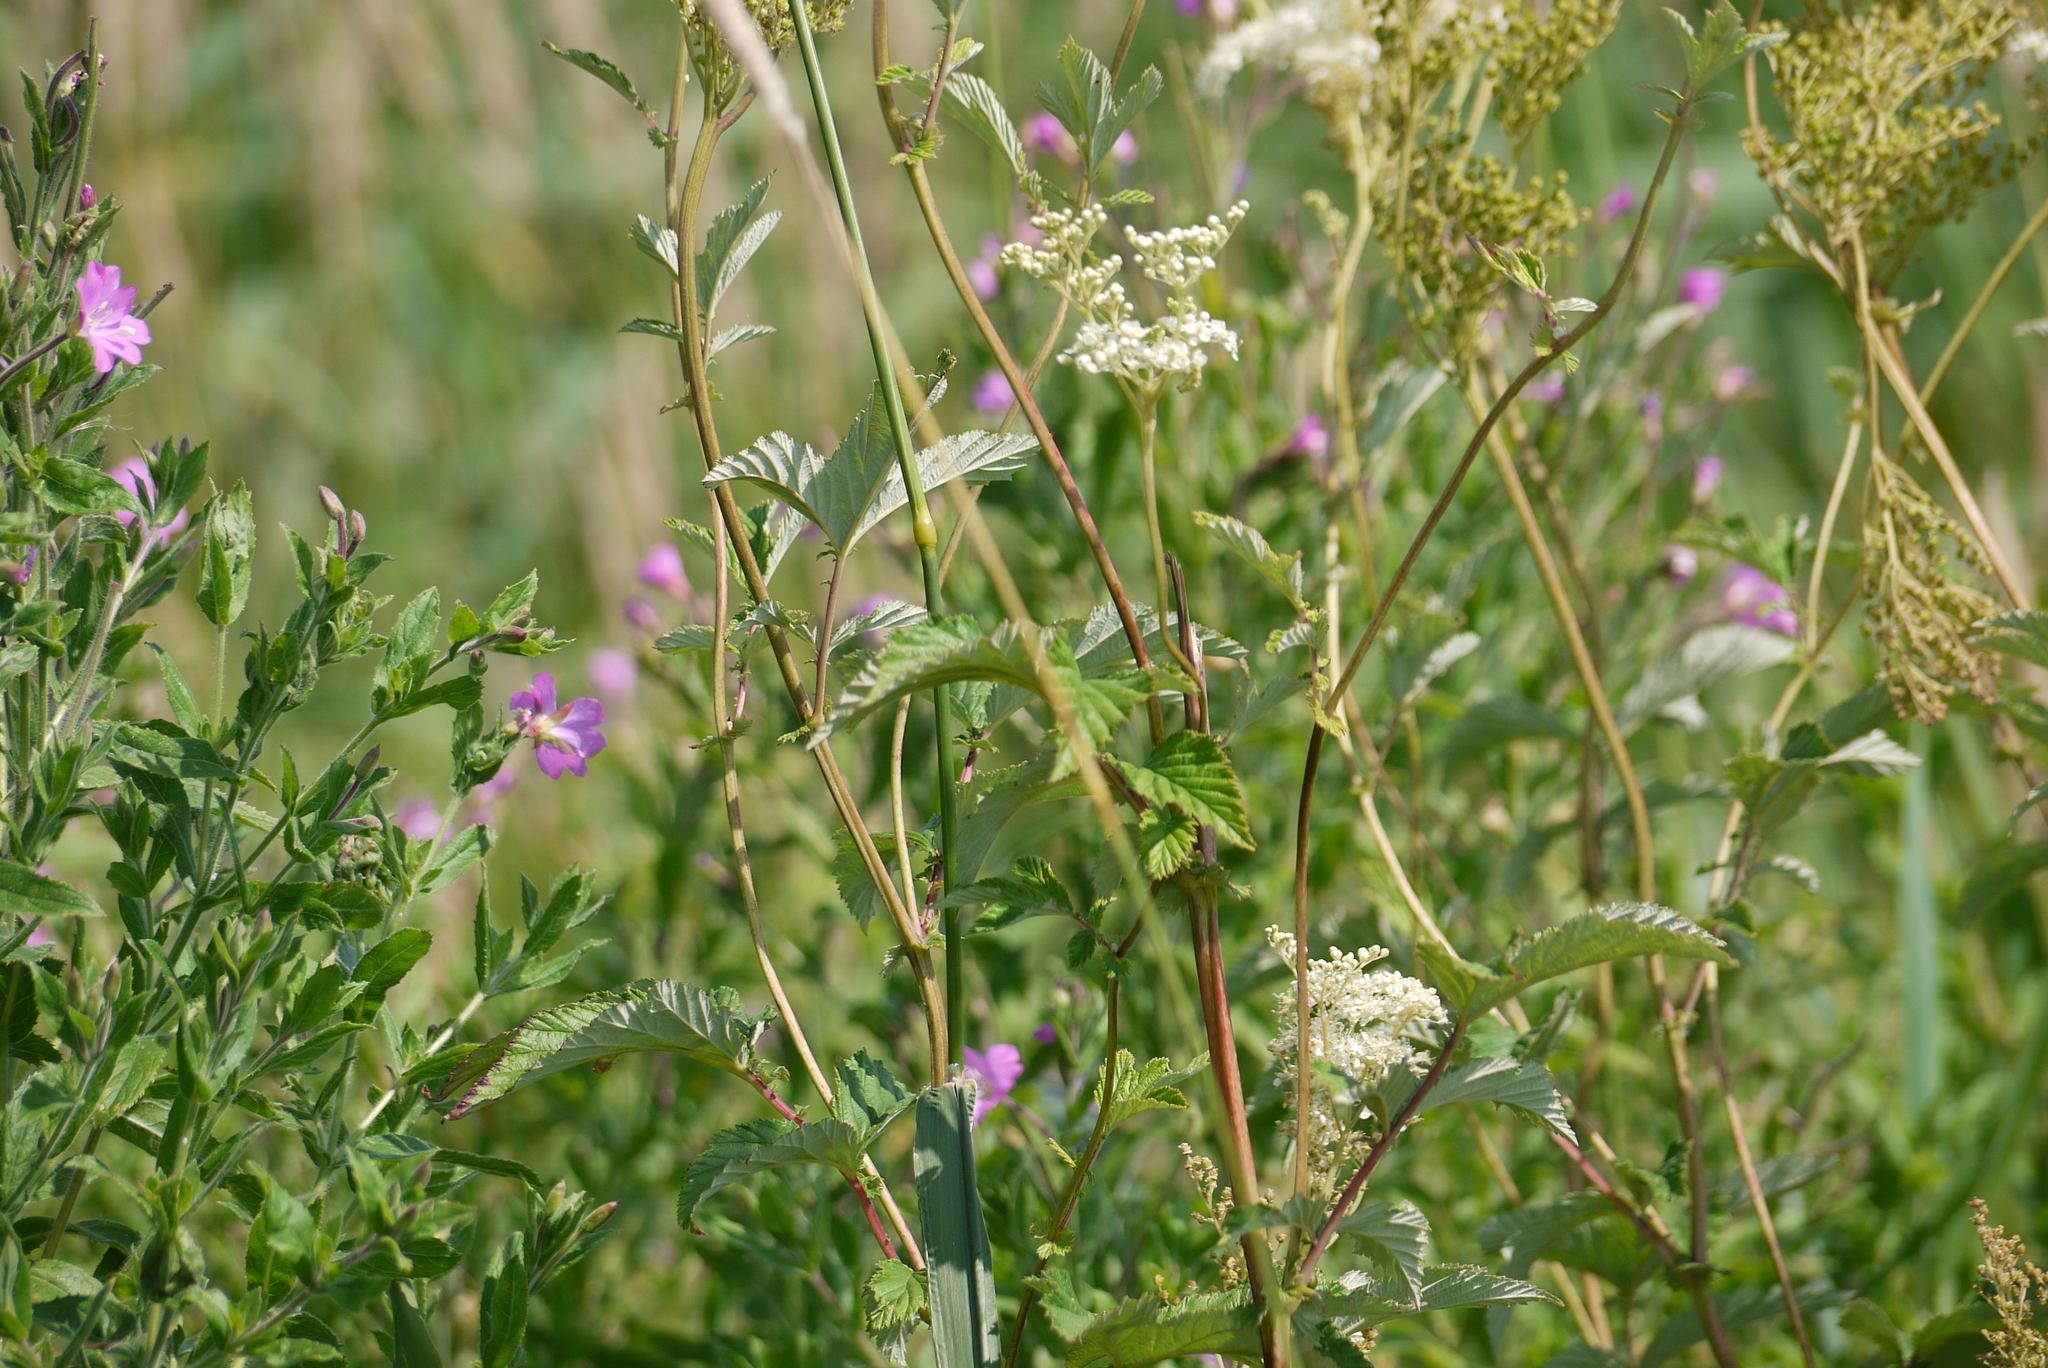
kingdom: Plantae
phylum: Tracheophyta
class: Magnoliopsida
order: Rosales
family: Rosaceae
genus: Filipendula
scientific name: Filipendula ulmaria
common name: Meadowsweet
